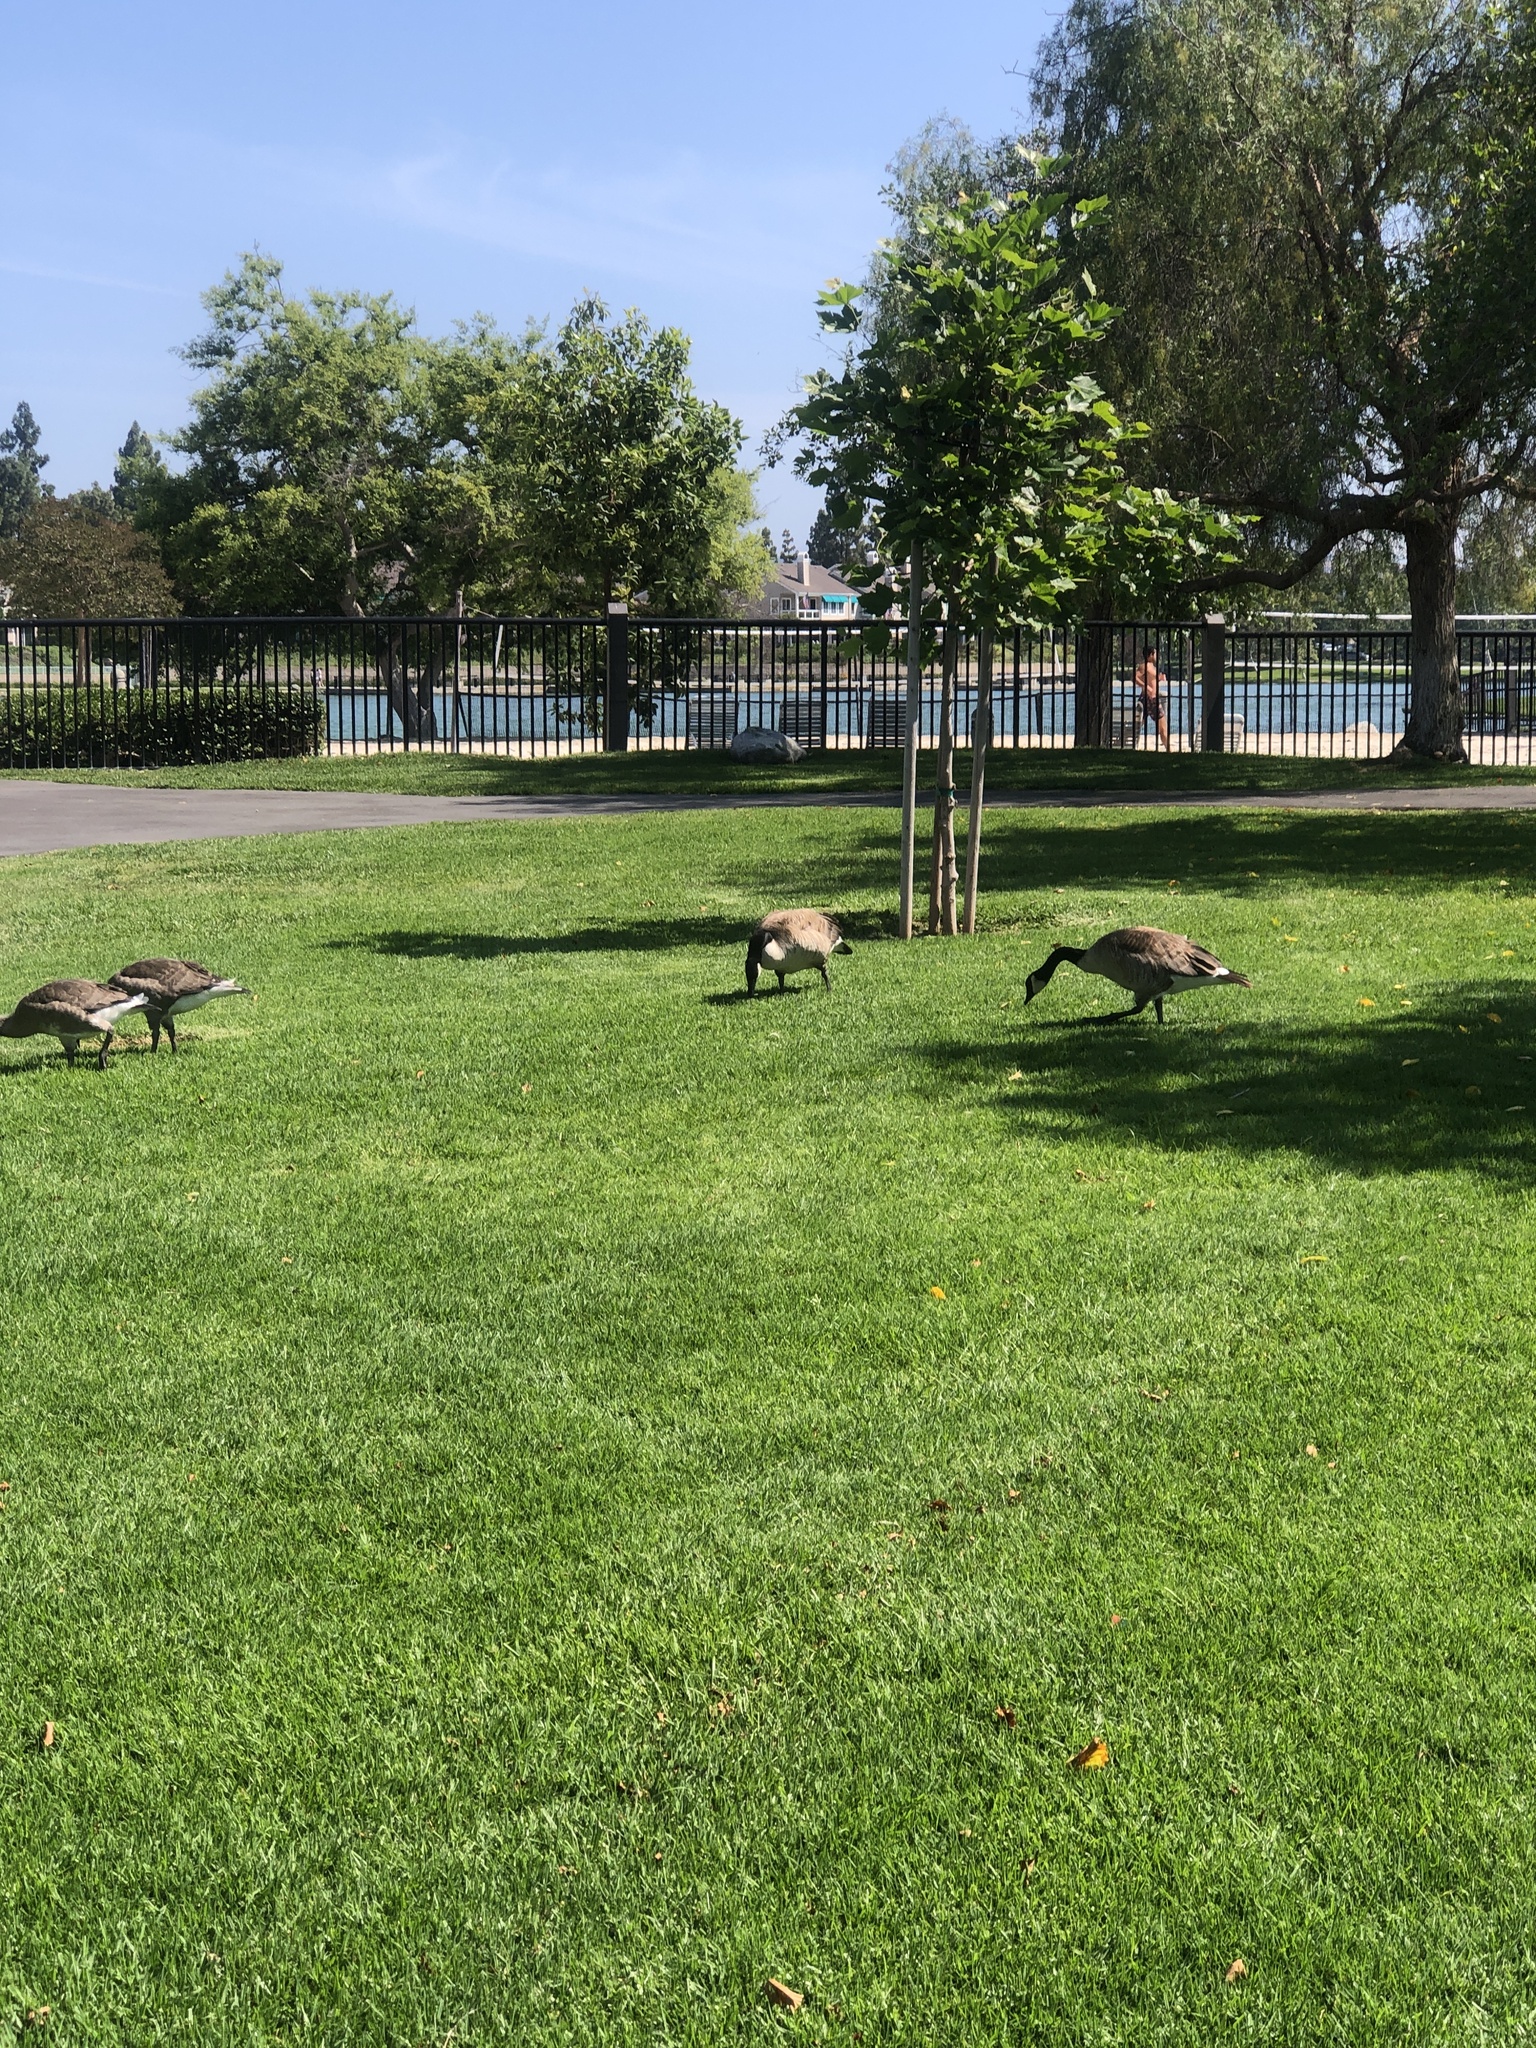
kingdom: Animalia
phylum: Chordata
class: Aves
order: Anseriformes
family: Anatidae
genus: Branta
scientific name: Branta canadensis
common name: Canada goose
